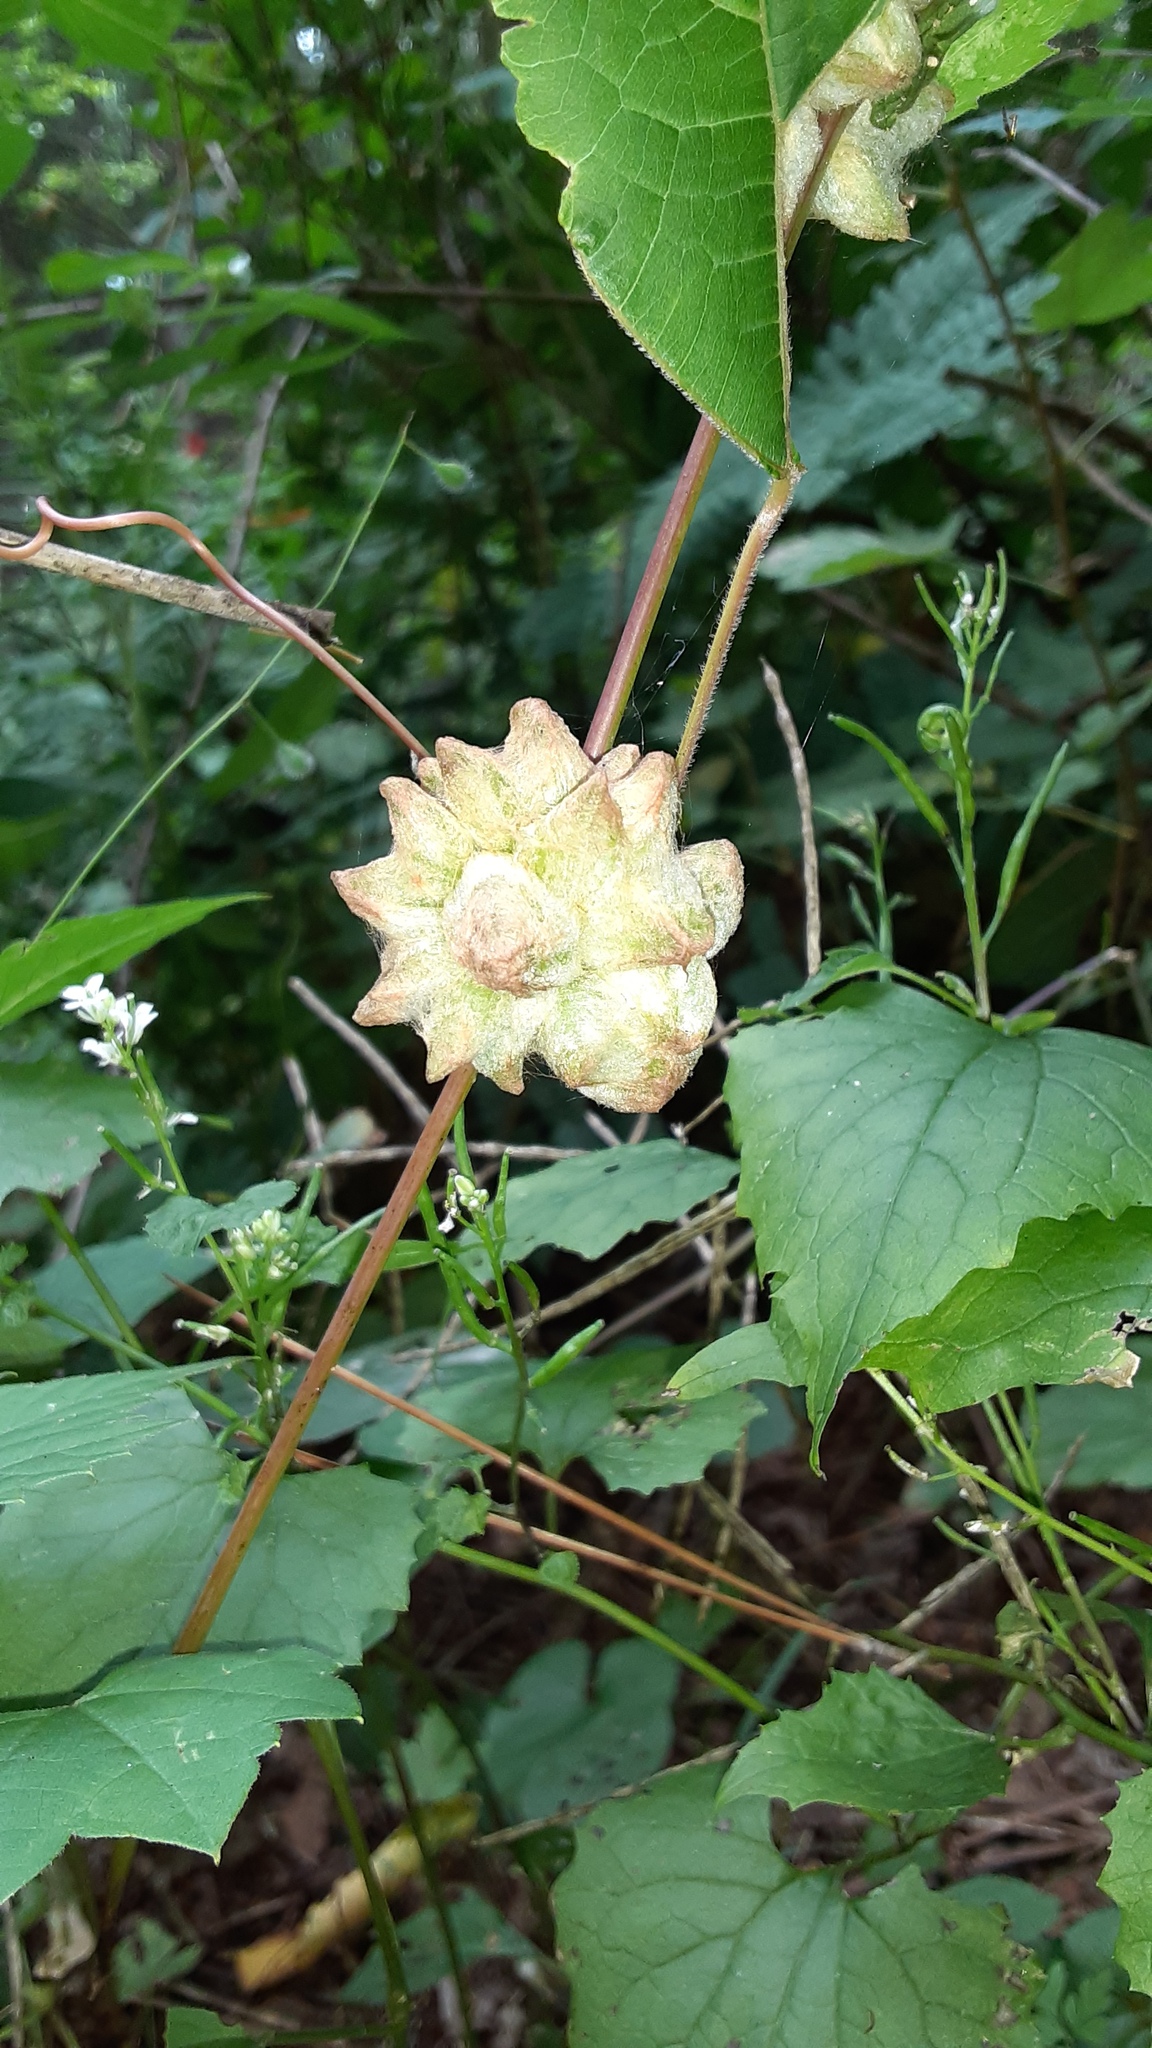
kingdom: Animalia
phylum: Arthropoda
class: Insecta
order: Diptera
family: Cecidomyiidae
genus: Ampelomyia
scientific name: Ampelomyia vitiscoryloides
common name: Grape filbert gall
